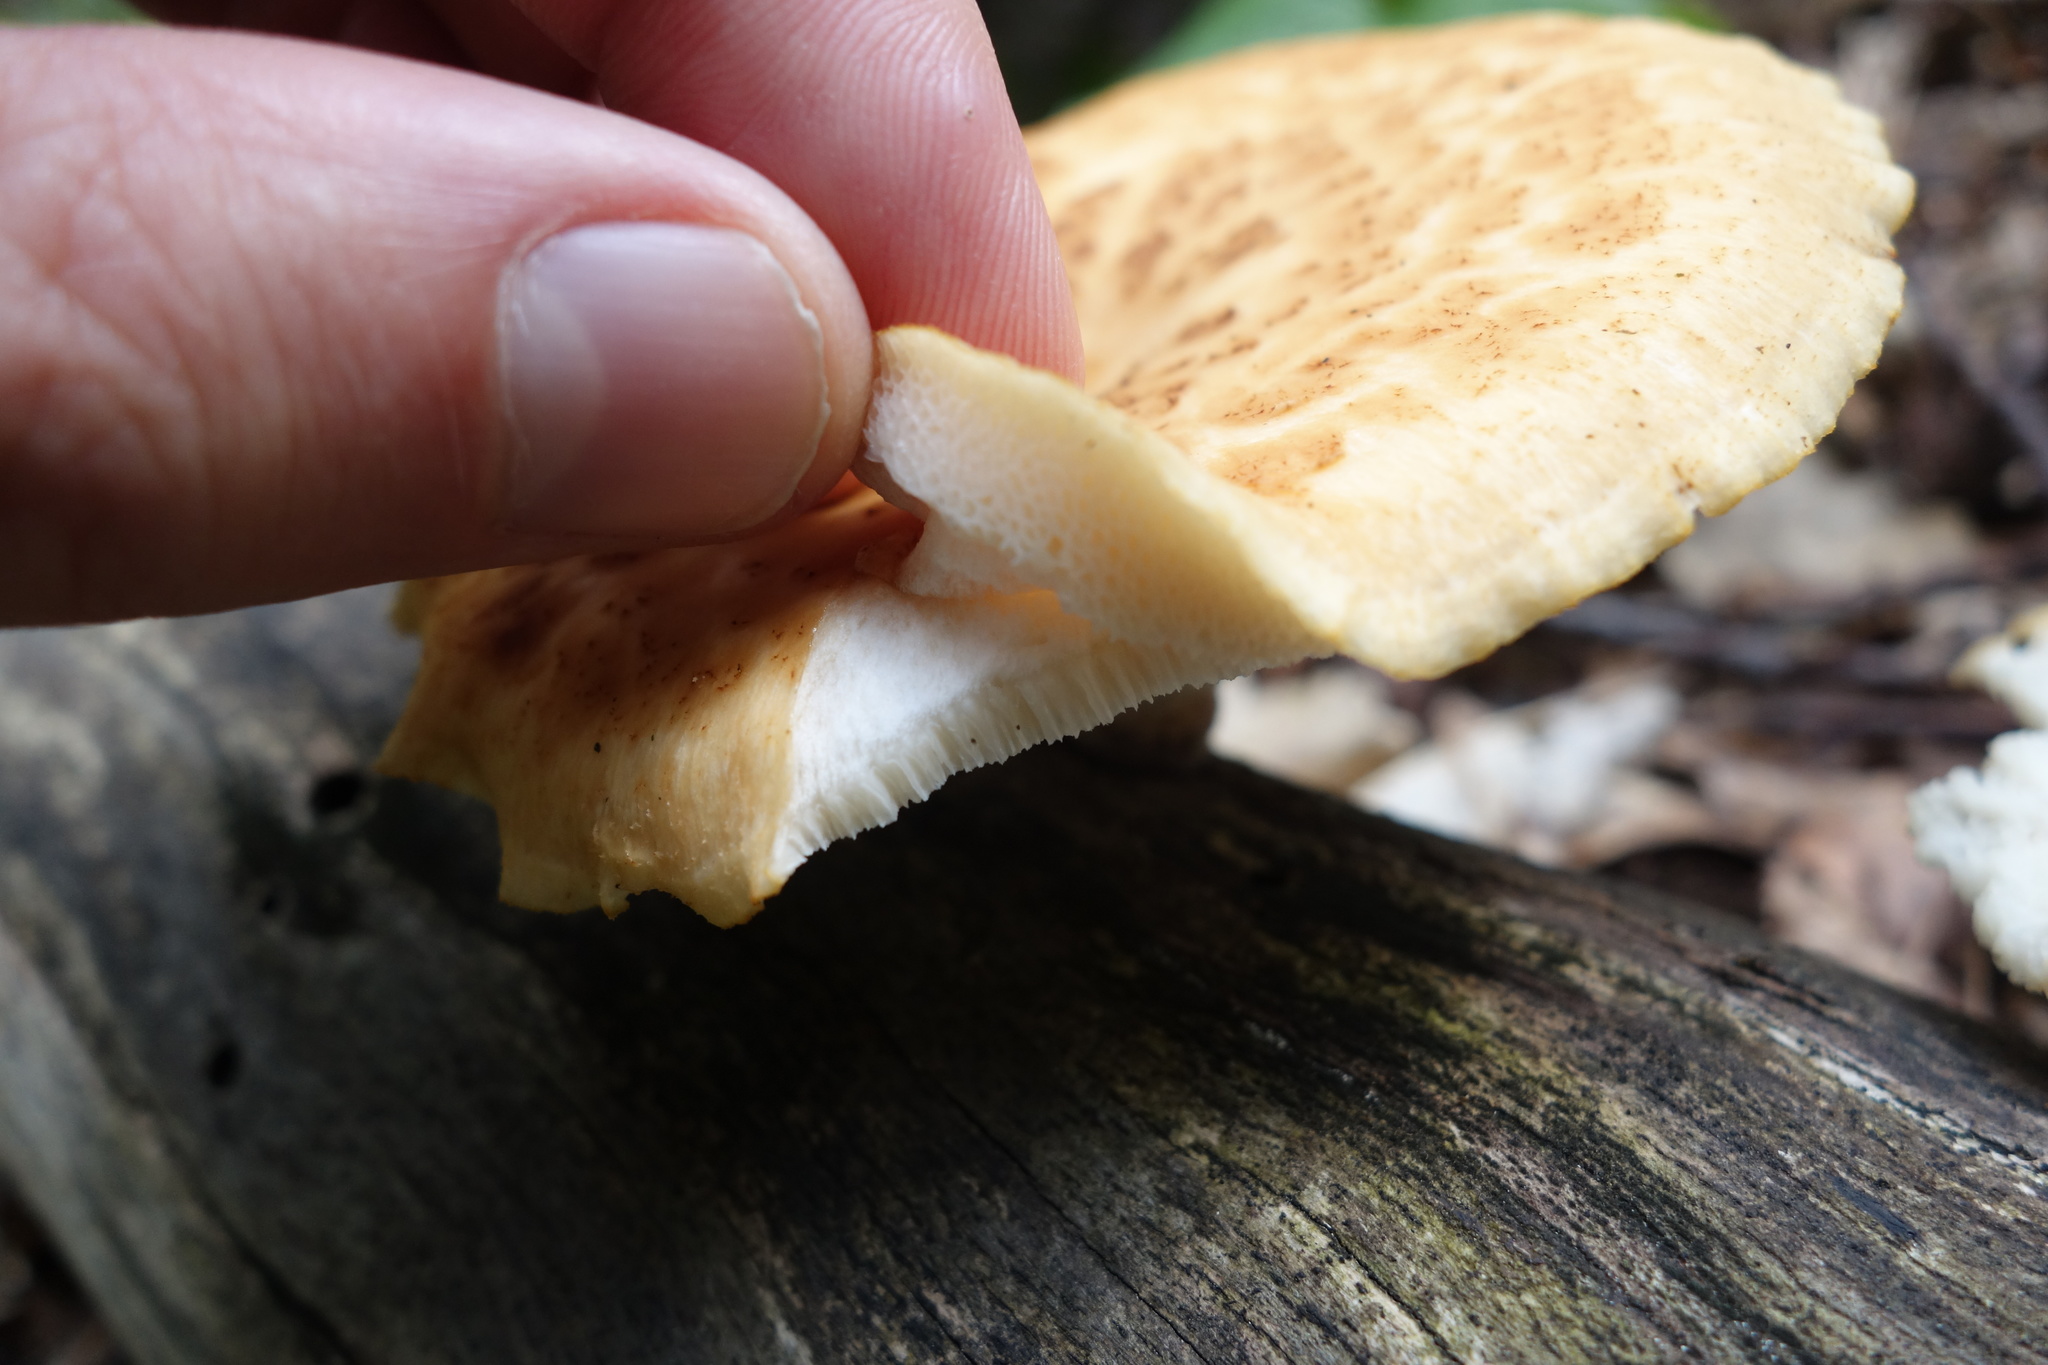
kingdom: Fungi
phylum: Basidiomycota
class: Agaricomycetes
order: Polyporales
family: Polyporaceae
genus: Polyporus
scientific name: Polyporus tuberaster
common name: Tuberous polypore
